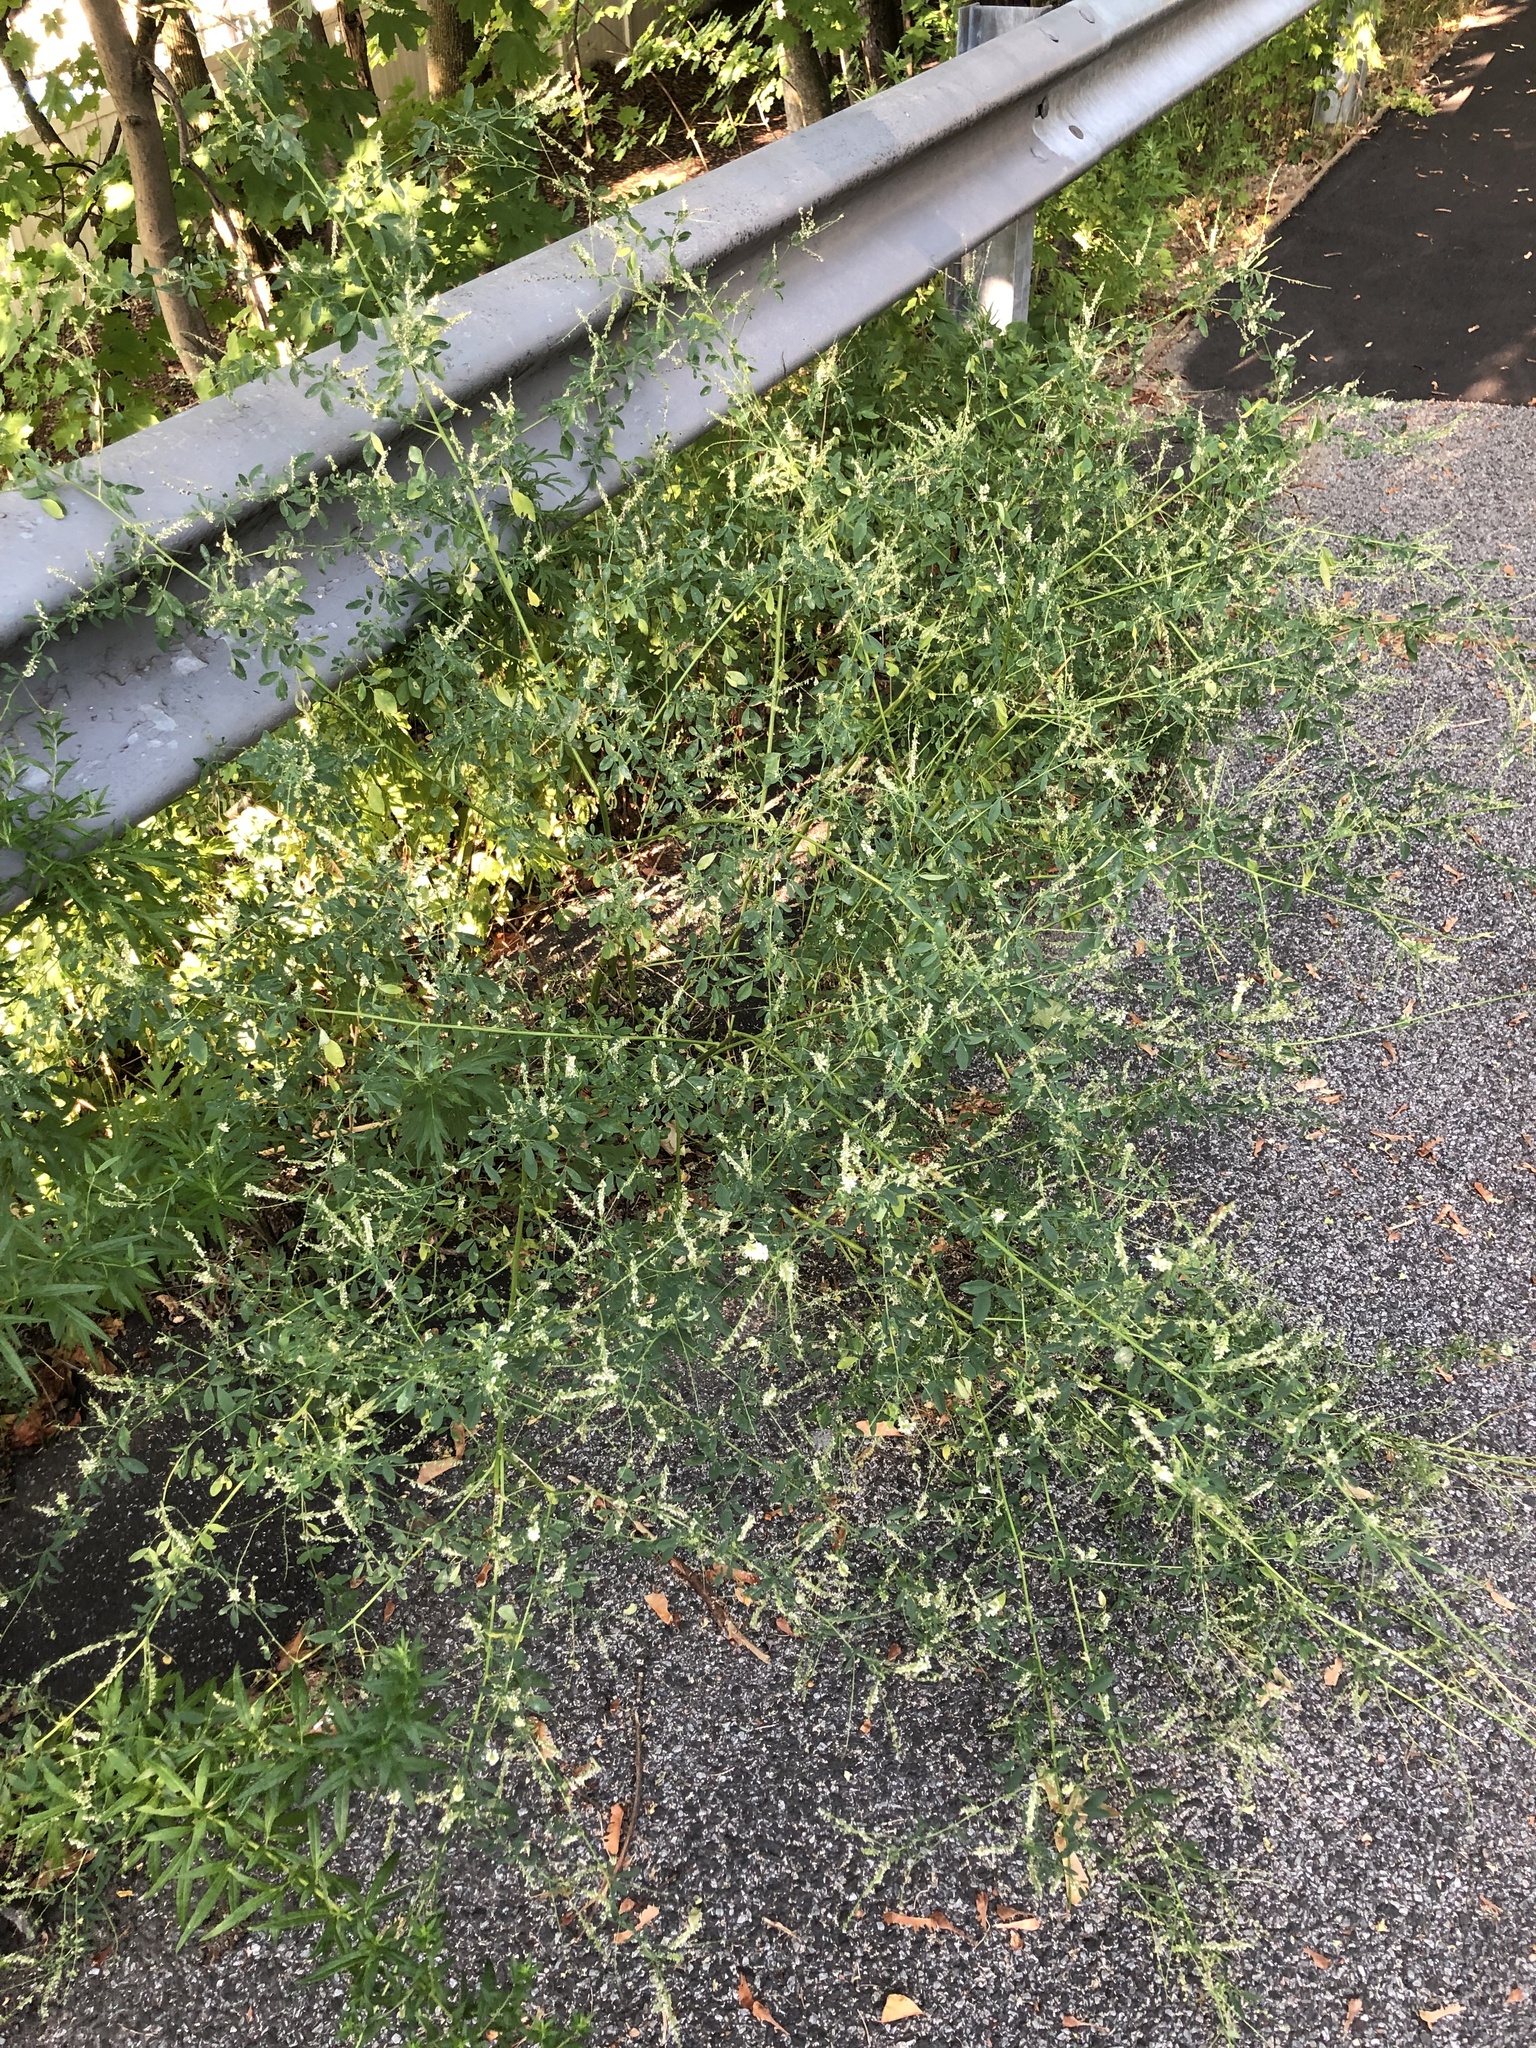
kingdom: Plantae
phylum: Tracheophyta
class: Magnoliopsida
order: Fabales
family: Fabaceae
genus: Melilotus
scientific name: Melilotus albus
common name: White melilot
